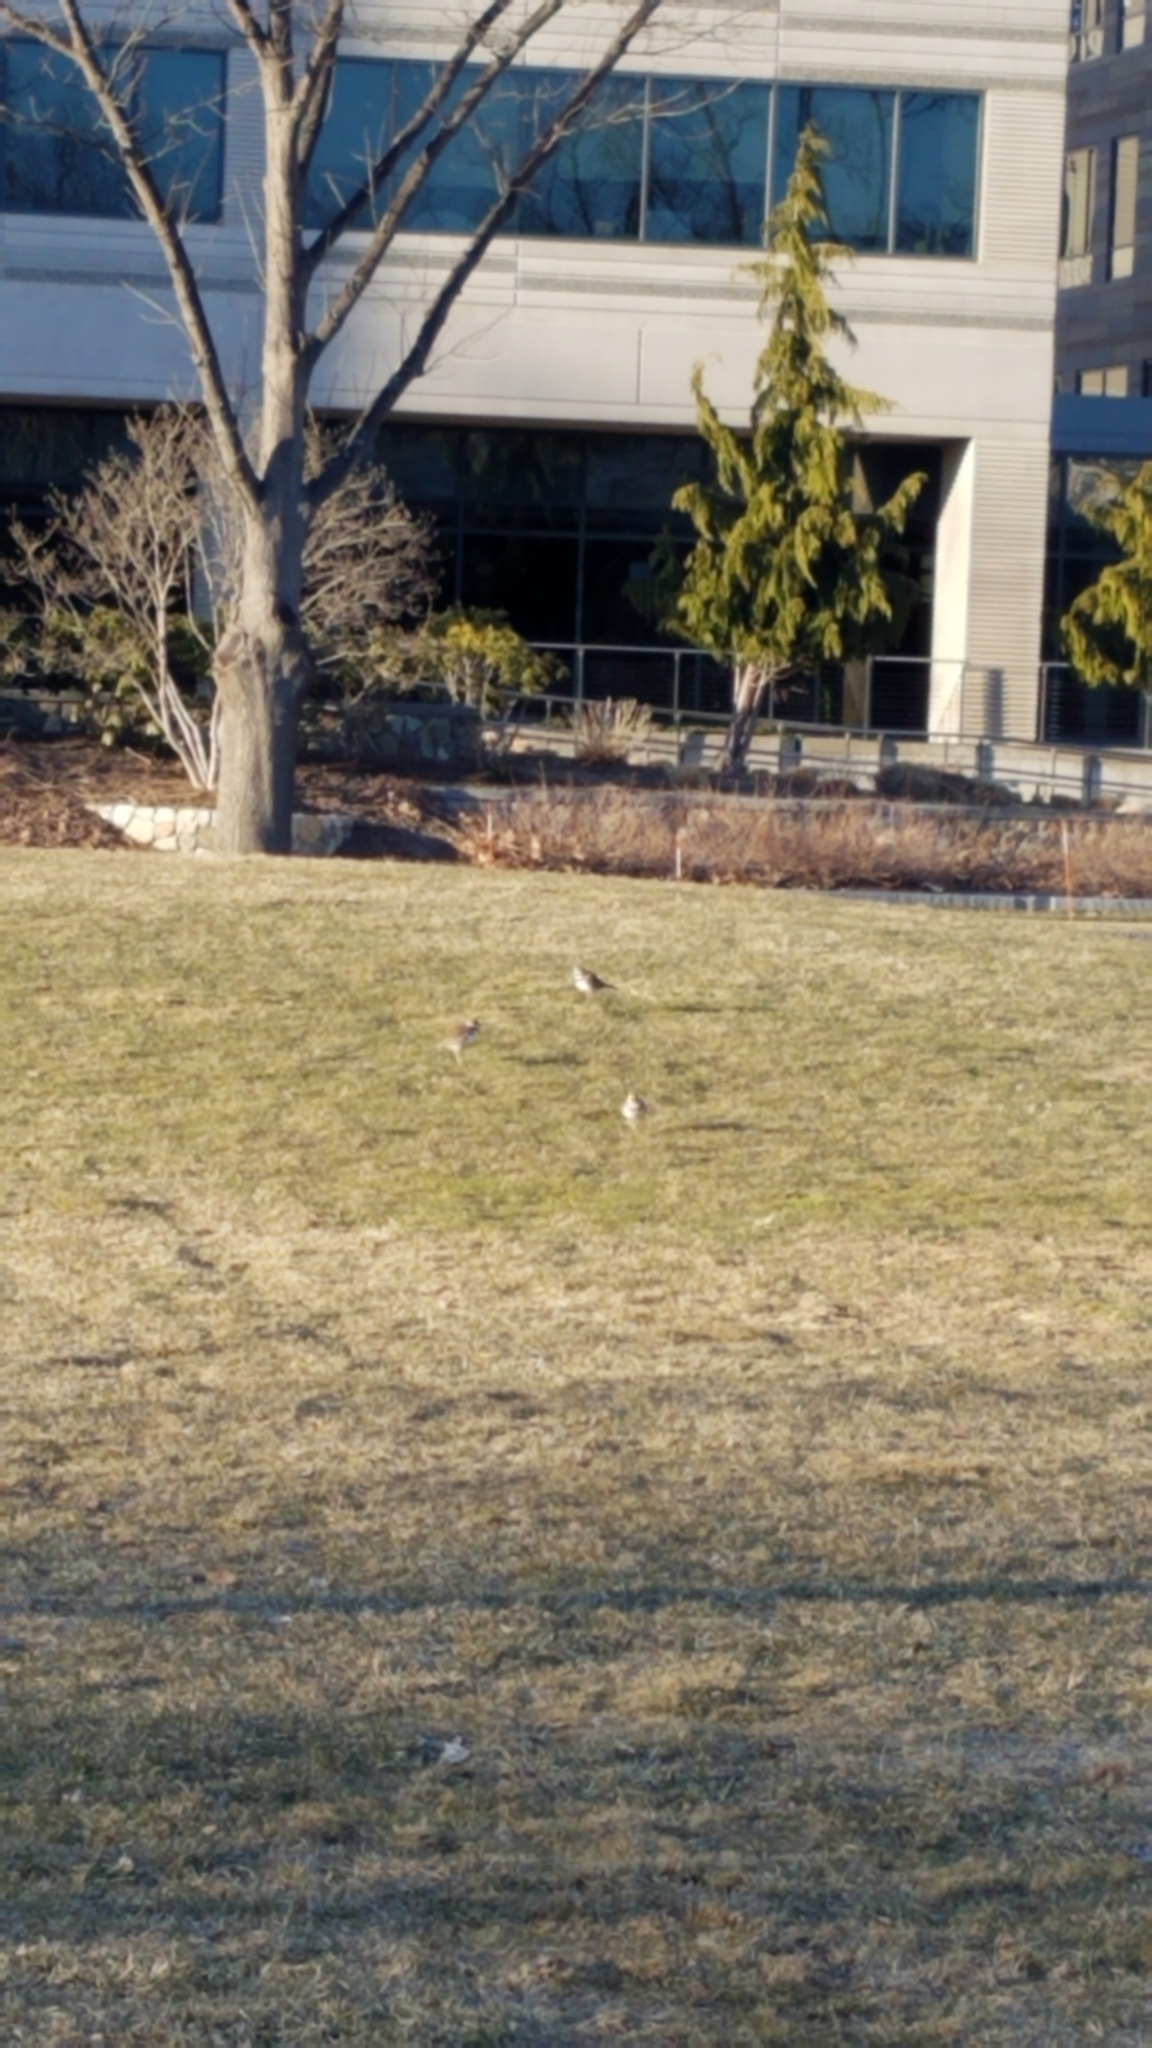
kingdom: Animalia
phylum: Chordata
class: Aves
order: Charadriiformes
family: Charadriidae
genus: Charadrius
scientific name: Charadrius vociferus
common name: Killdeer
